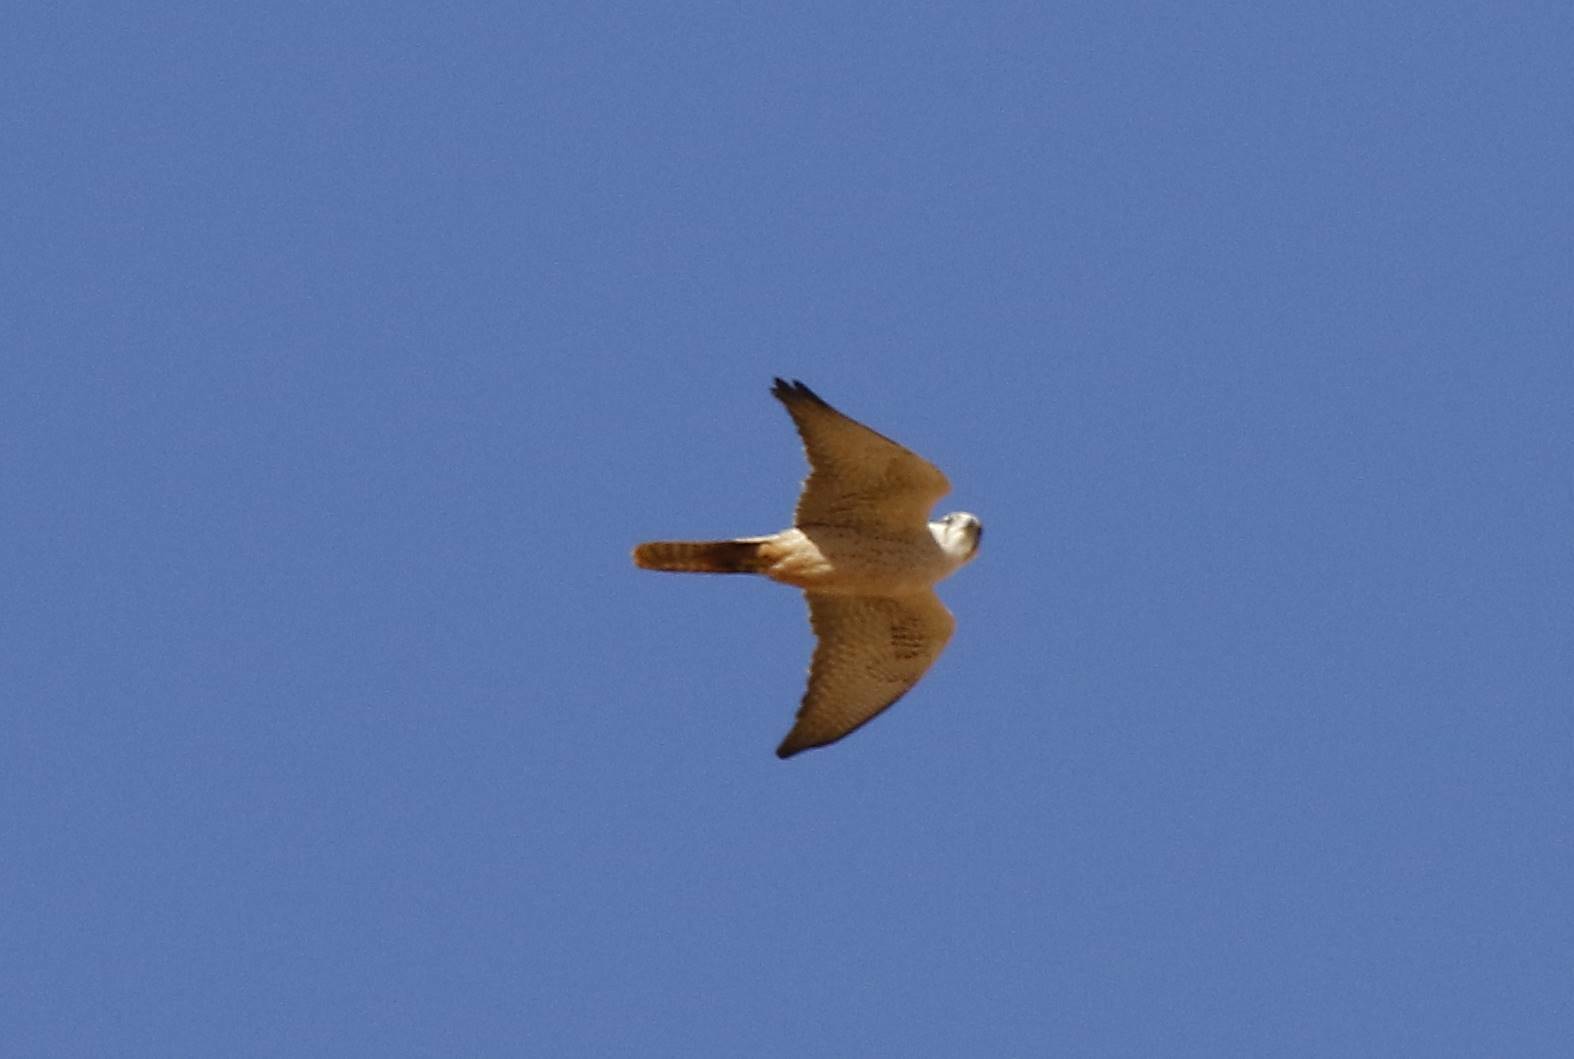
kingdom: Animalia
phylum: Chordata
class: Aves
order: Falconiformes
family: Falconidae
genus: Falco
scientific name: Falco biarmicus
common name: Lanner falcon
